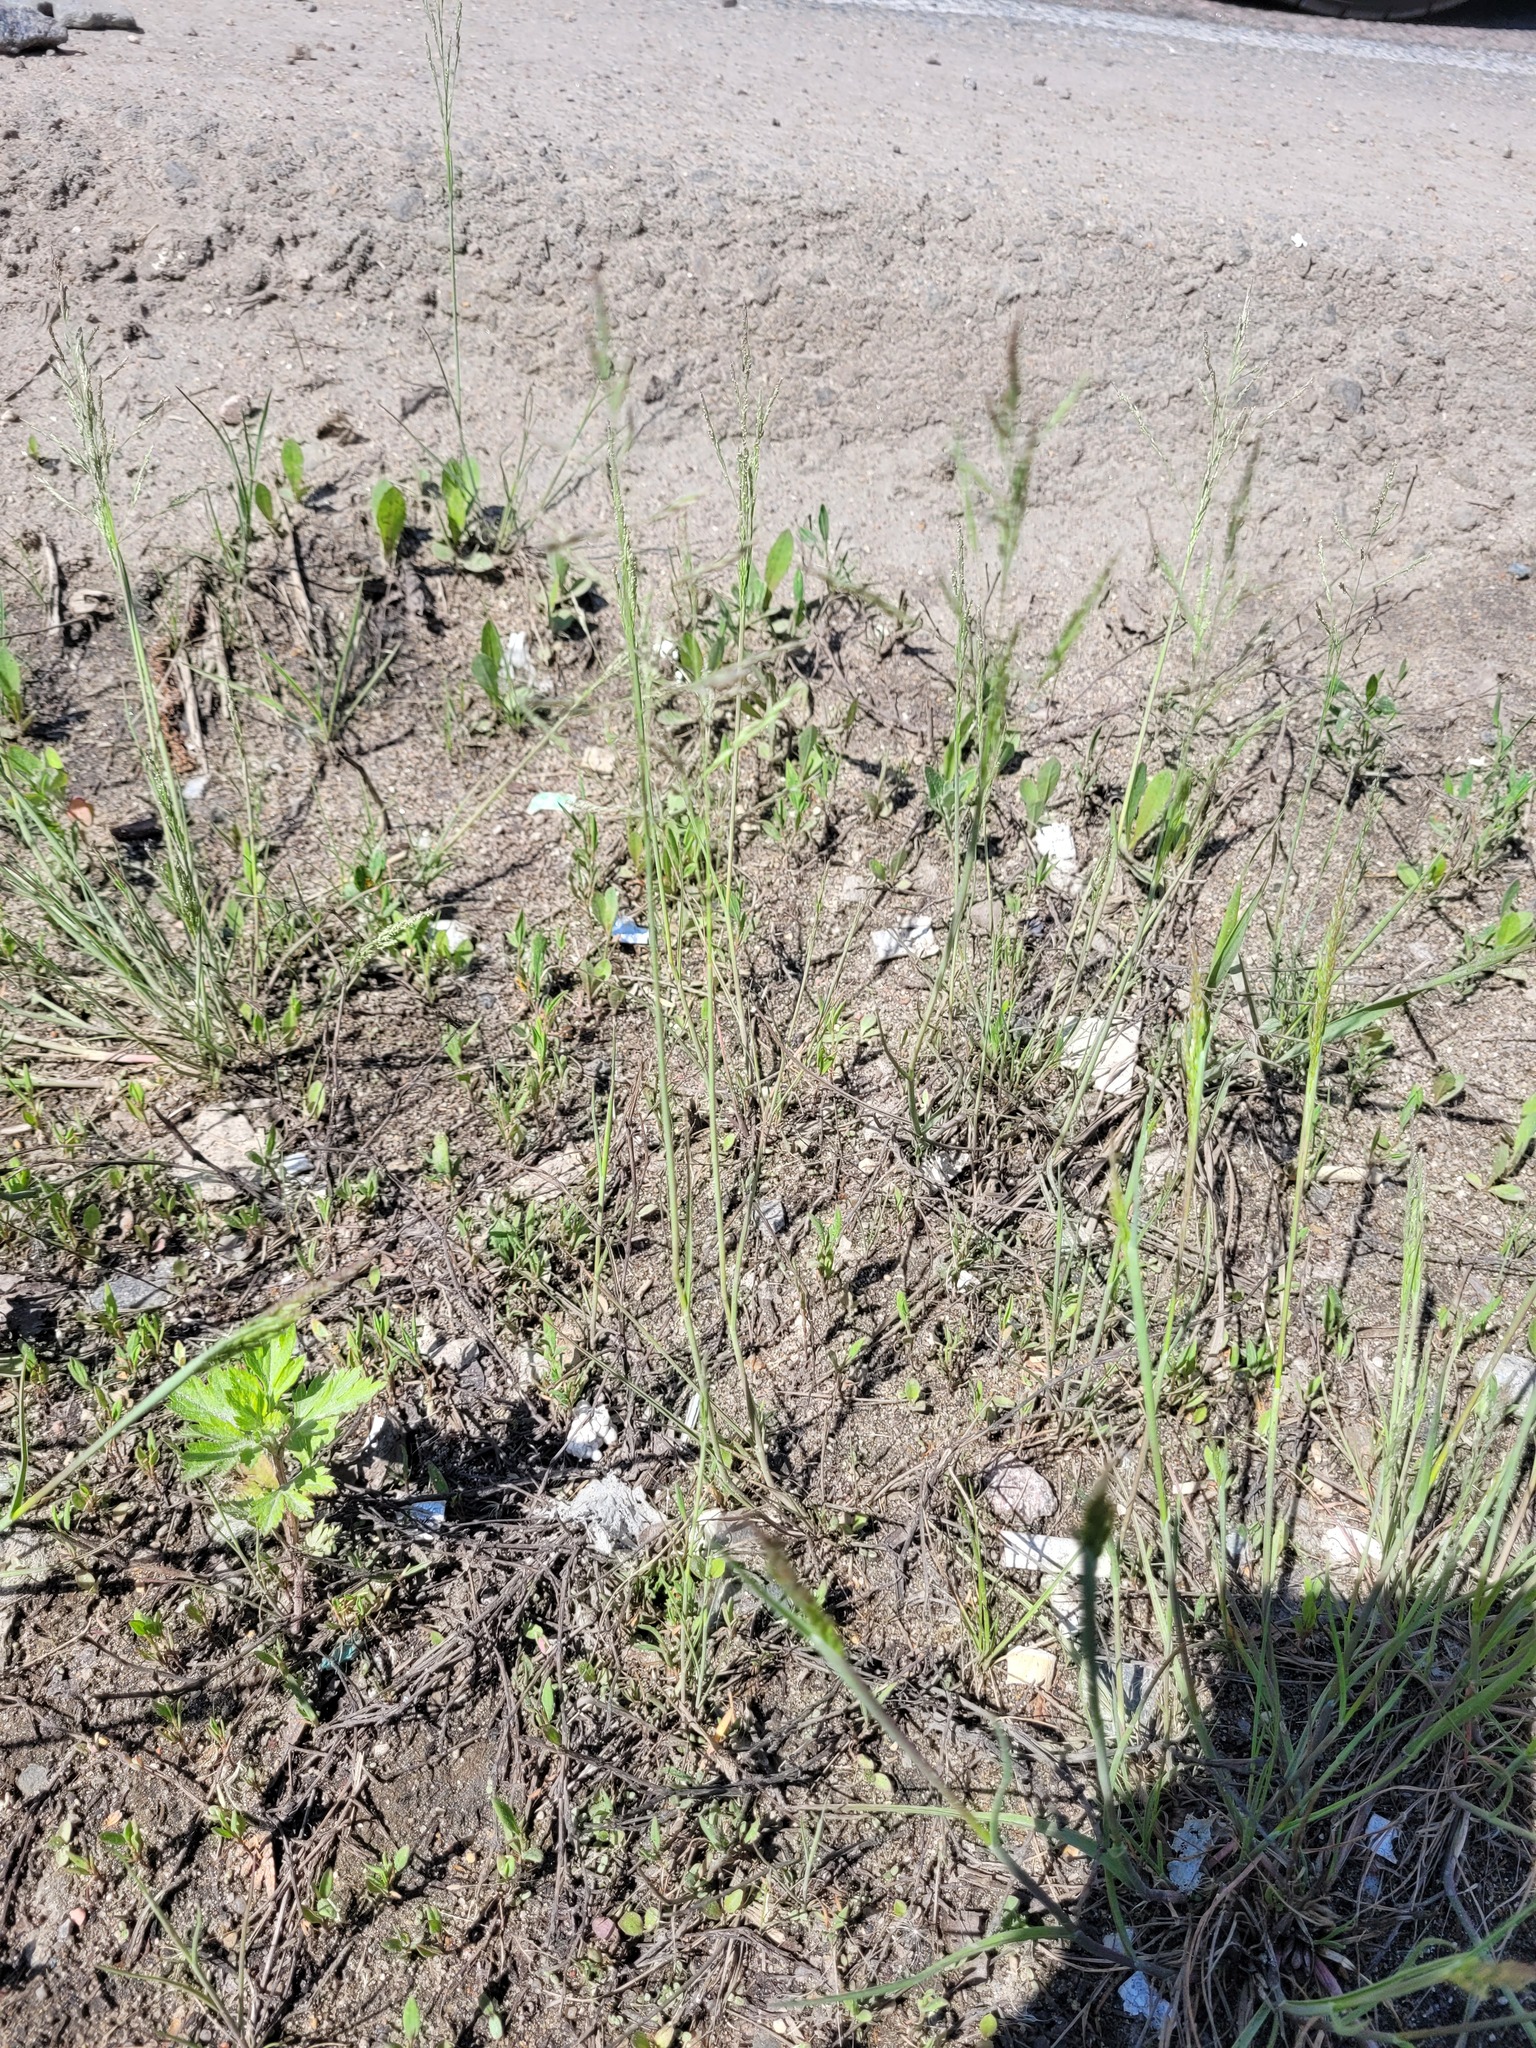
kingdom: Plantae
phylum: Tracheophyta
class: Liliopsida
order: Poales
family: Poaceae
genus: Puccinellia
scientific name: Puccinellia distans
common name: Weeping alkaligrass
